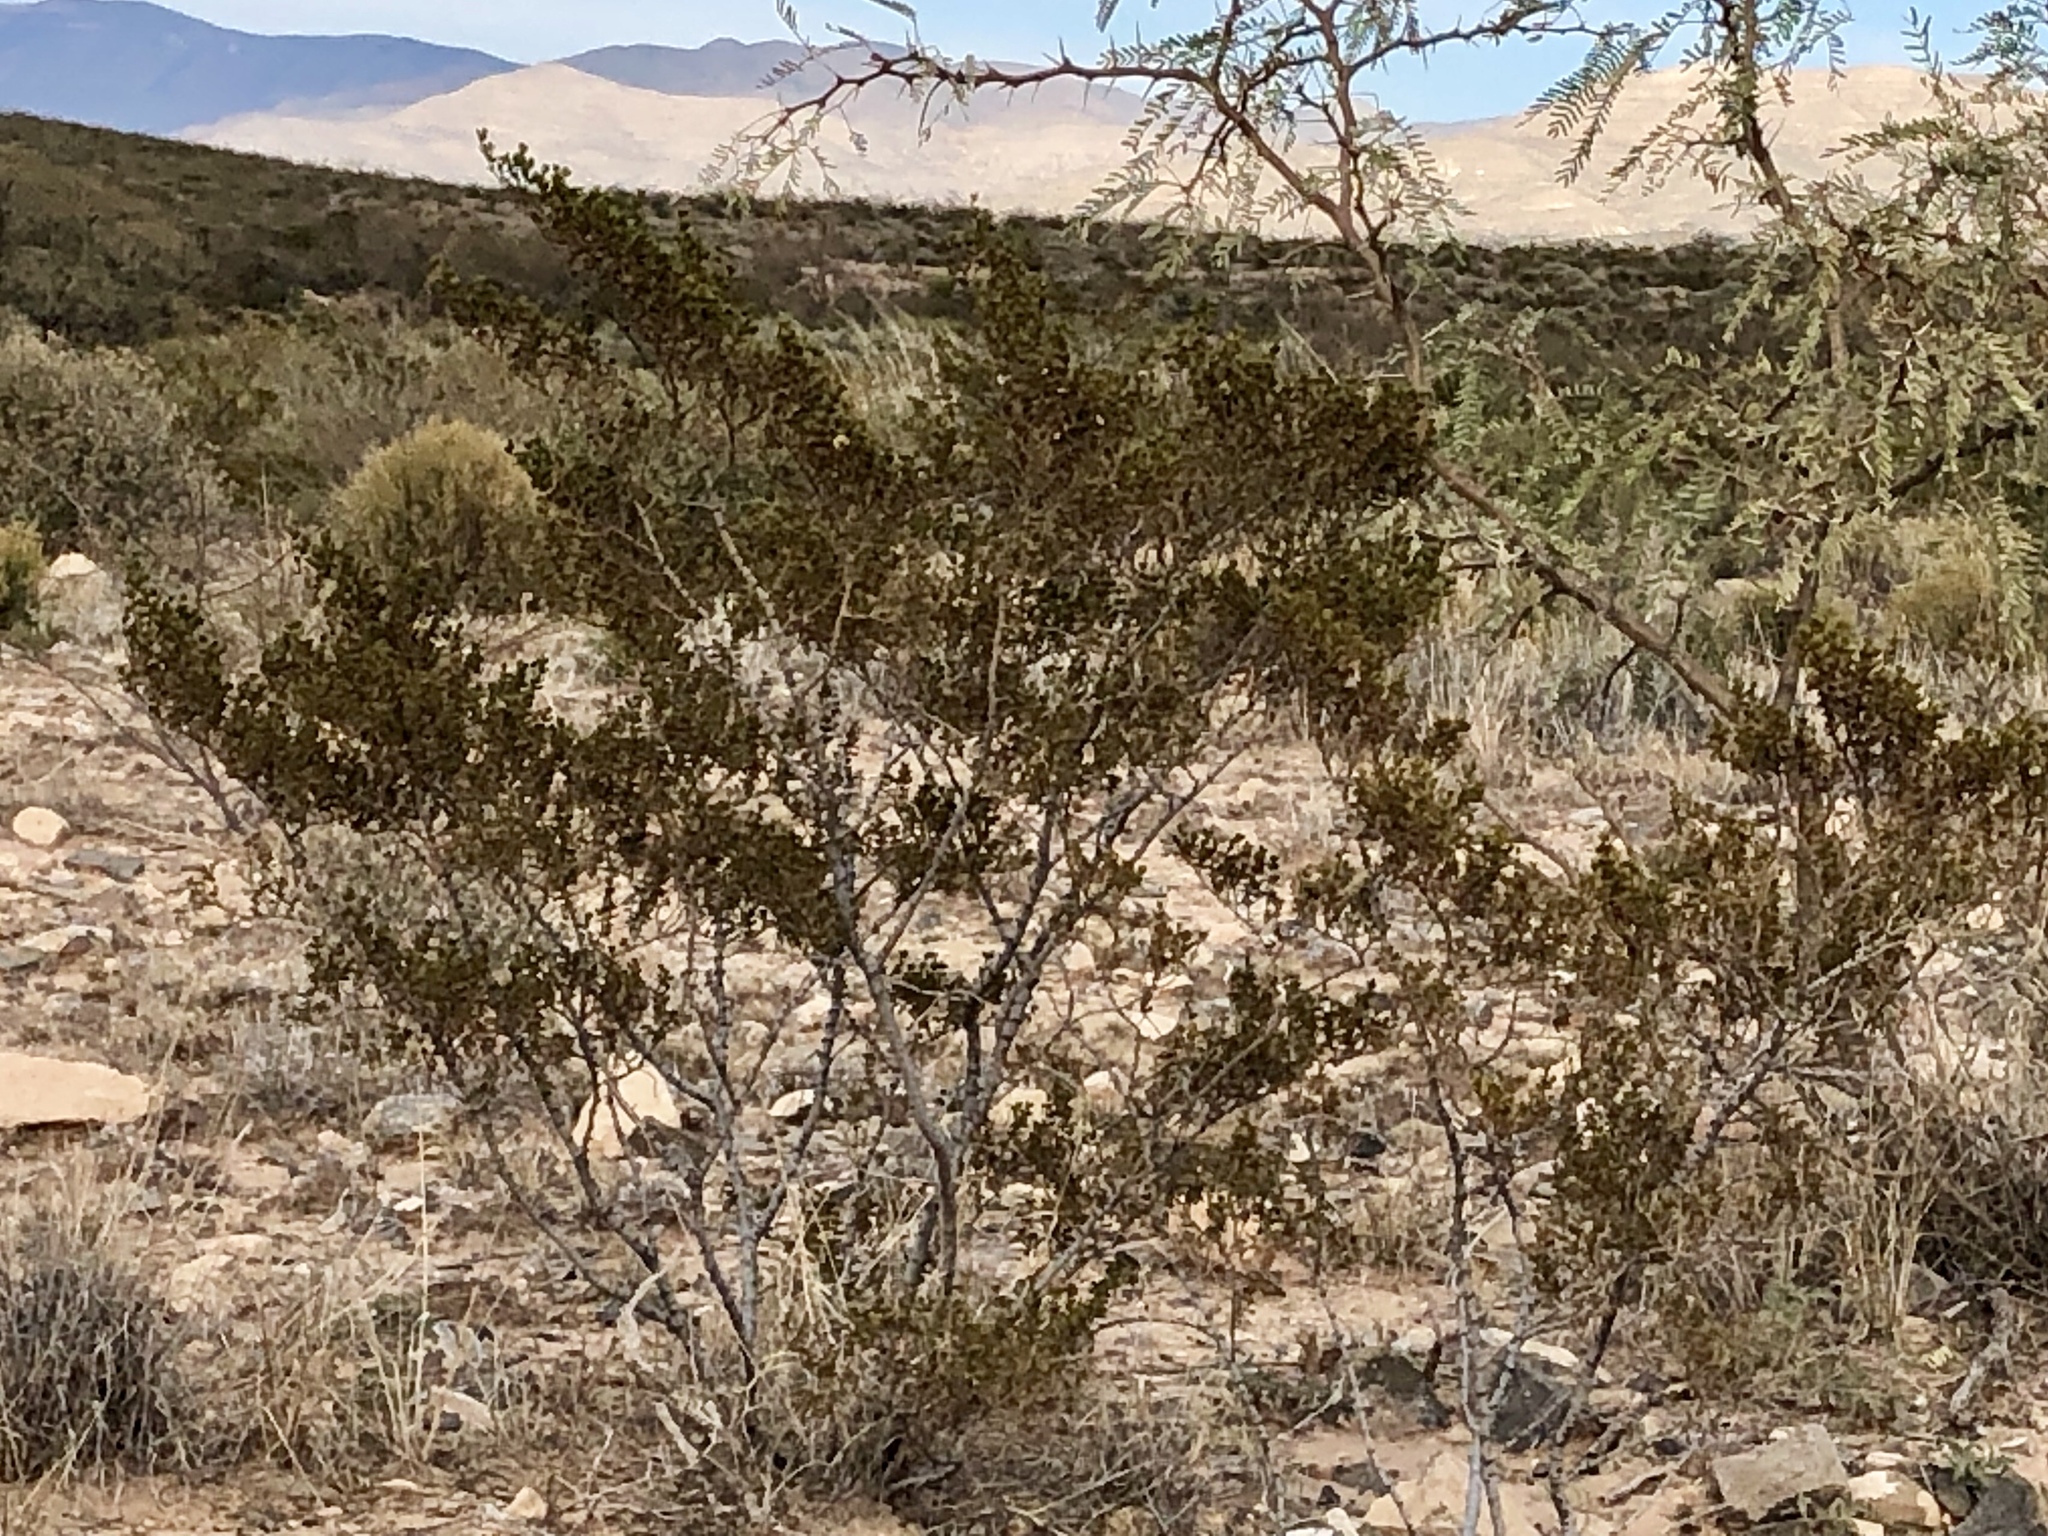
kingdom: Plantae
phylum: Tracheophyta
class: Magnoliopsida
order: Zygophyllales
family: Zygophyllaceae
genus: Larrea
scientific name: Larrea tridentata
